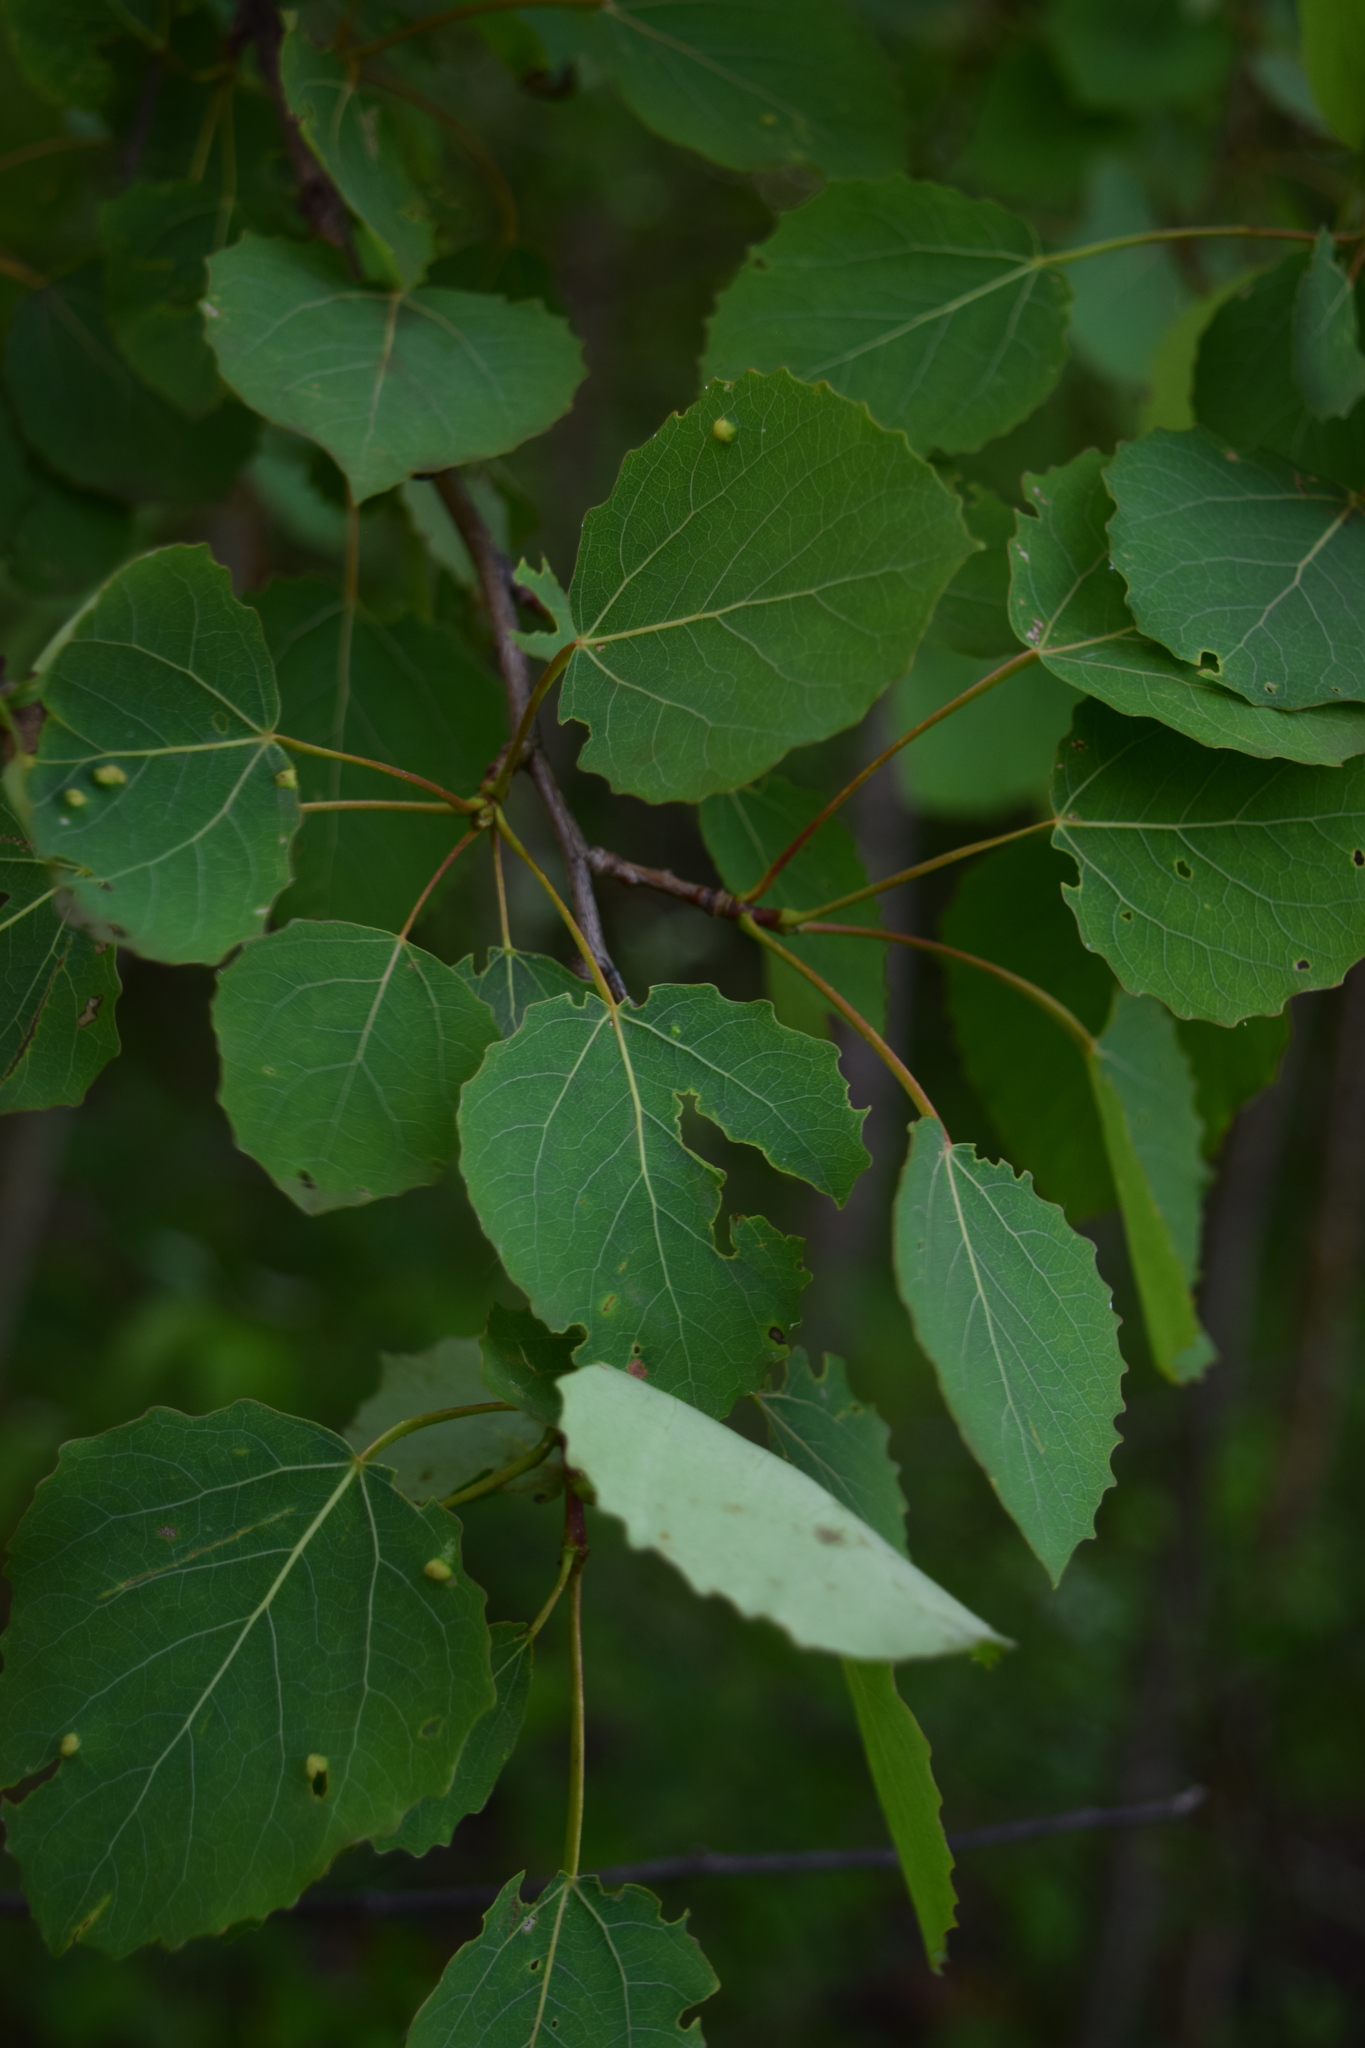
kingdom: Plantae
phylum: Tracheophyta
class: Magnoliopsida
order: Malpighiales
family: Salicaceae
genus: Populus
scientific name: Populus tremula
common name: European aspen
